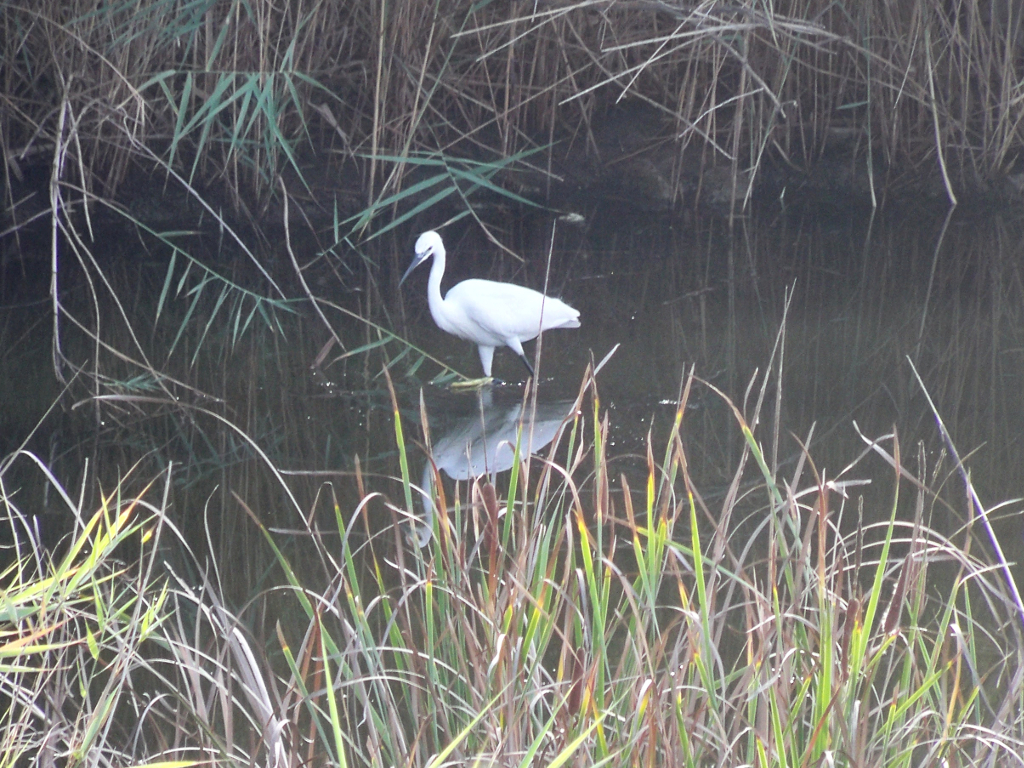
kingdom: Animalia
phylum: Chordata
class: Aves
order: Pelecaniformes
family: Ardeidae
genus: Egretta
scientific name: Egretta garzetta
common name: Little egret
